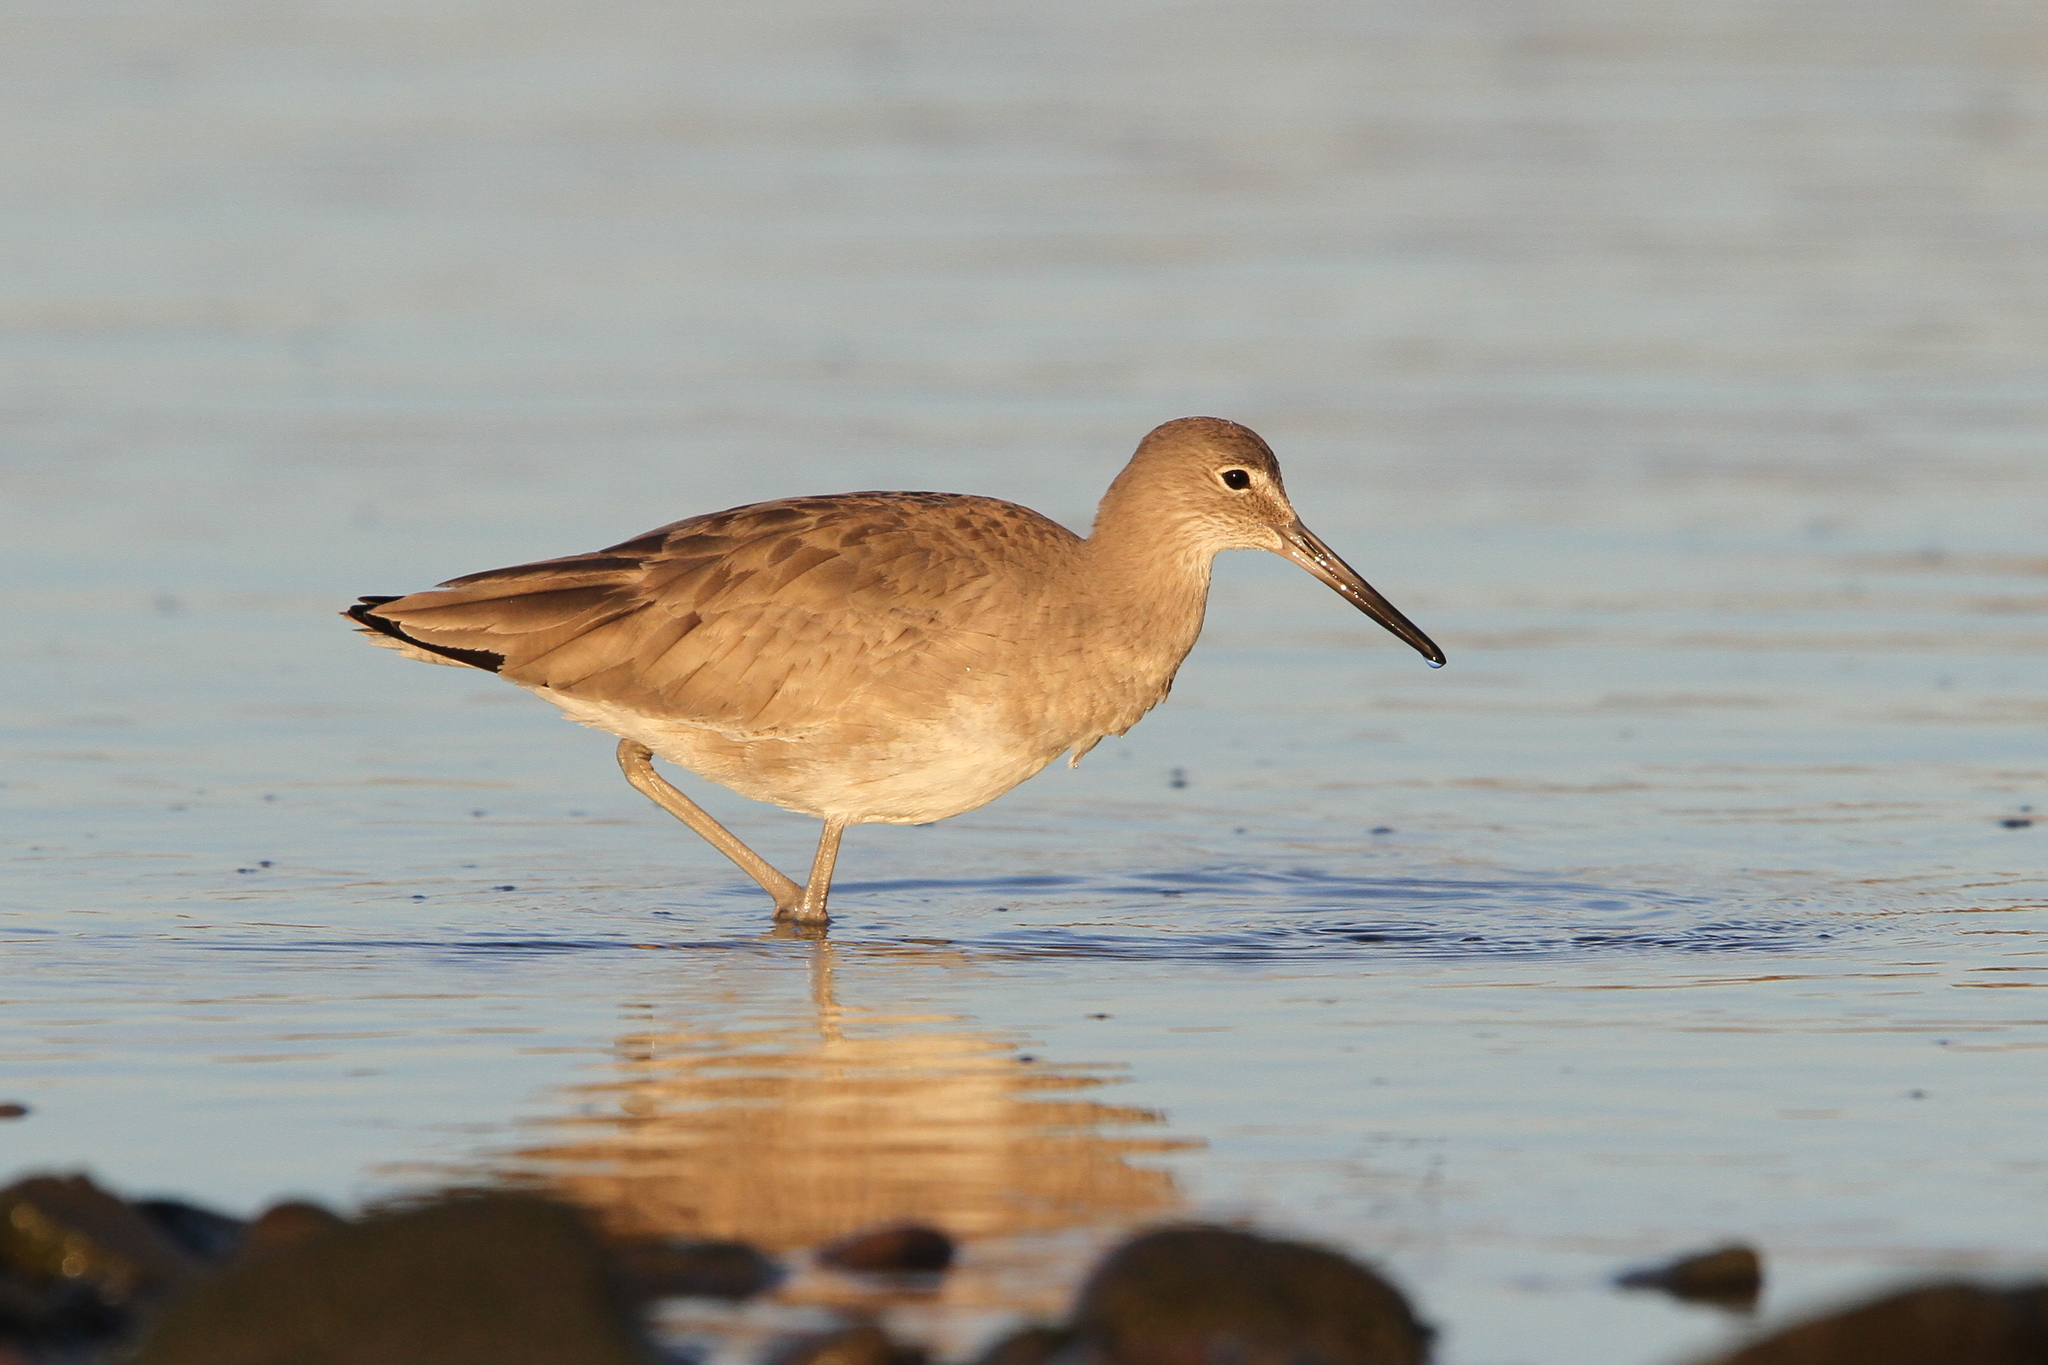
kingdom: Animalia
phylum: Chordata
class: Aves
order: Charadriiformes
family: Scolopacidae
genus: Tringa
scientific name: Tringa semipalmata
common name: Willet
